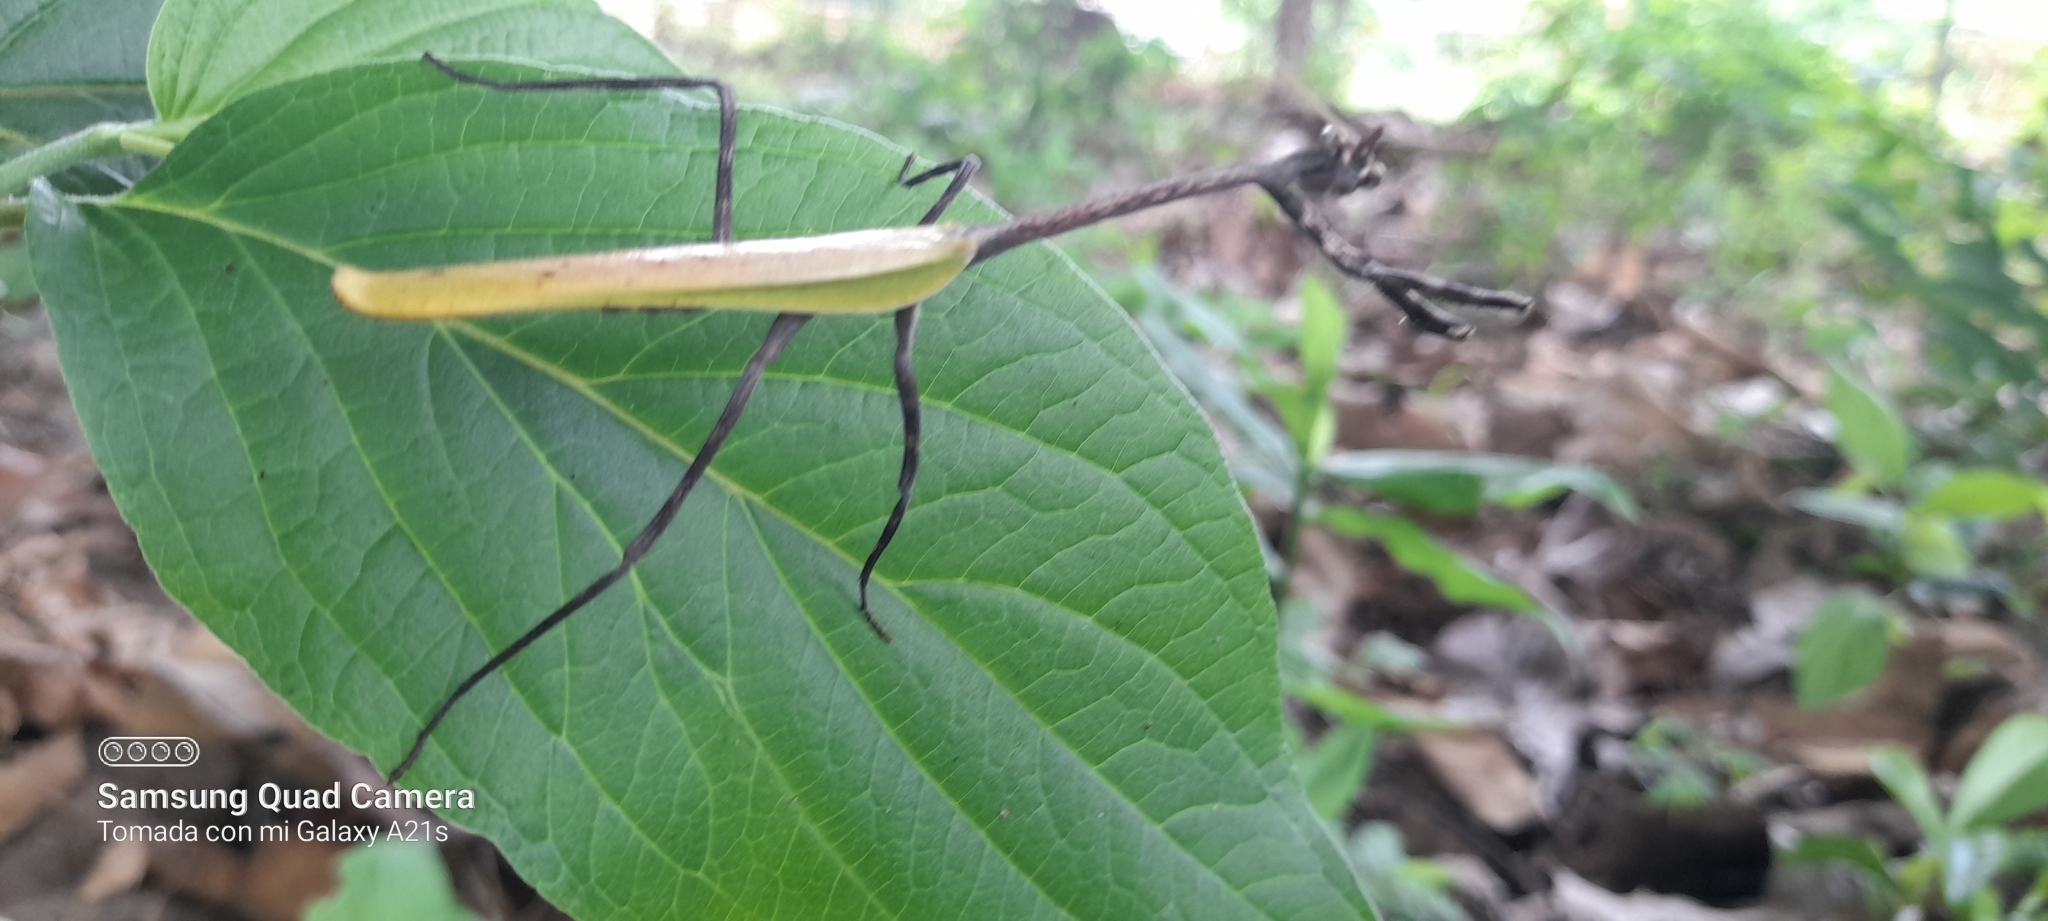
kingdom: Animalia
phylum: Arthropoda
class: Insecta
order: Mantodea
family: Mantidae
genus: Pseudovates
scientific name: Pseudovates chlorophaea
